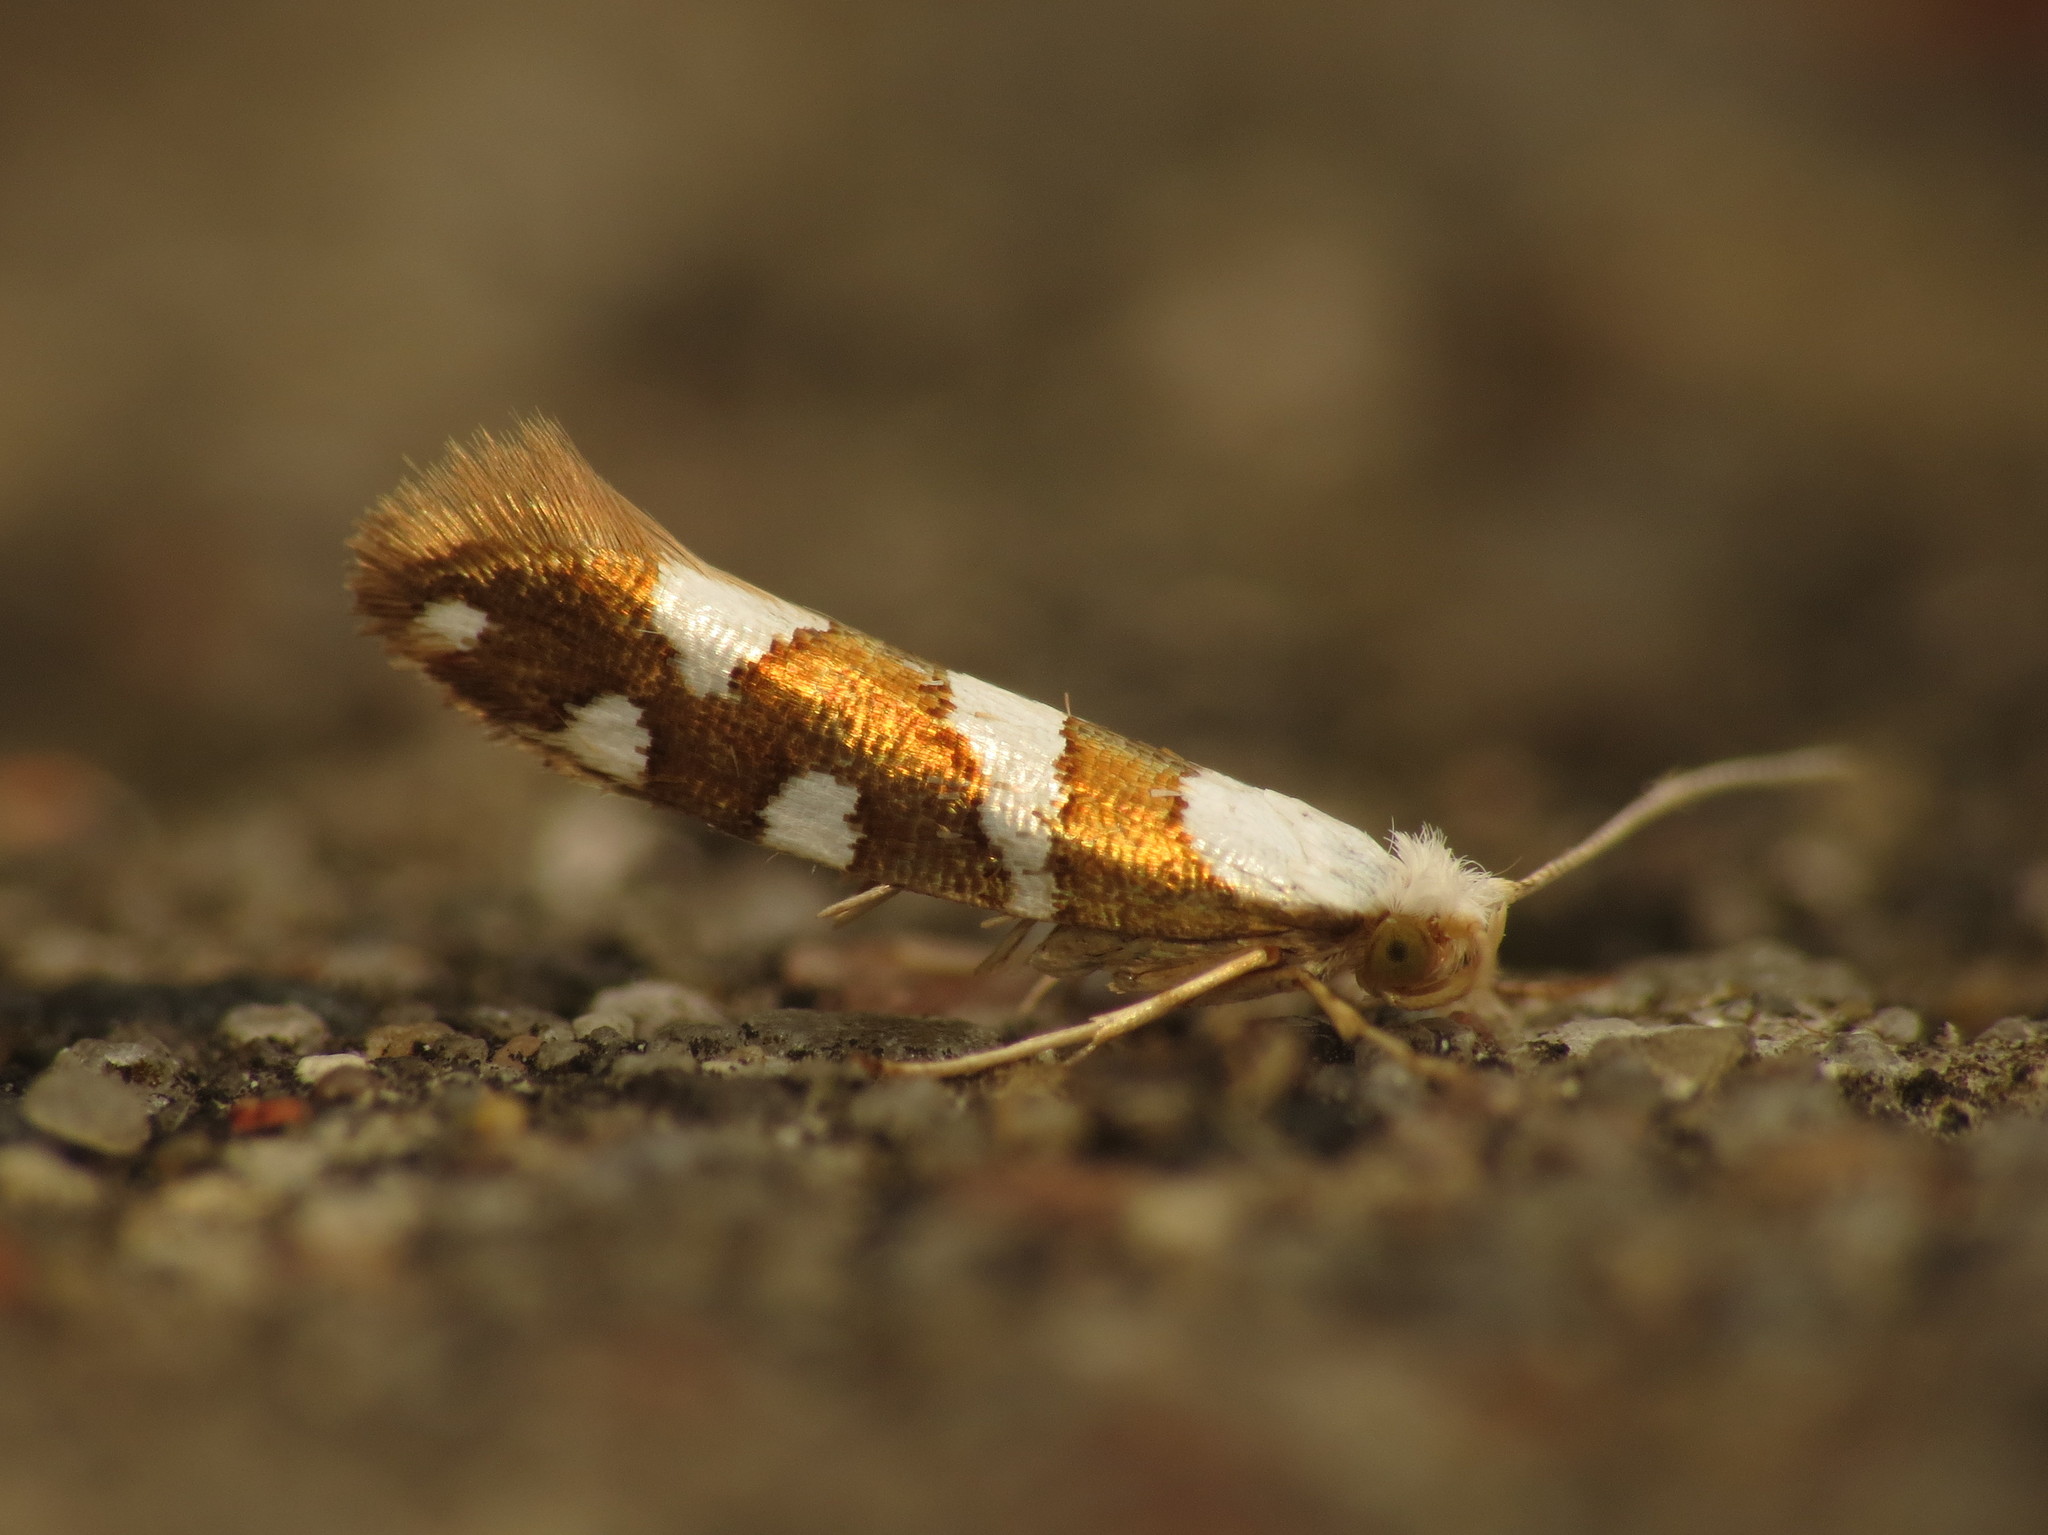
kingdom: Animalia
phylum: Arthropoda
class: Insecta
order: Lepidoptera
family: Argyresthiidae
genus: Argyresthia
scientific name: Argyresthia brockeella
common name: Gold-ribbon argent
